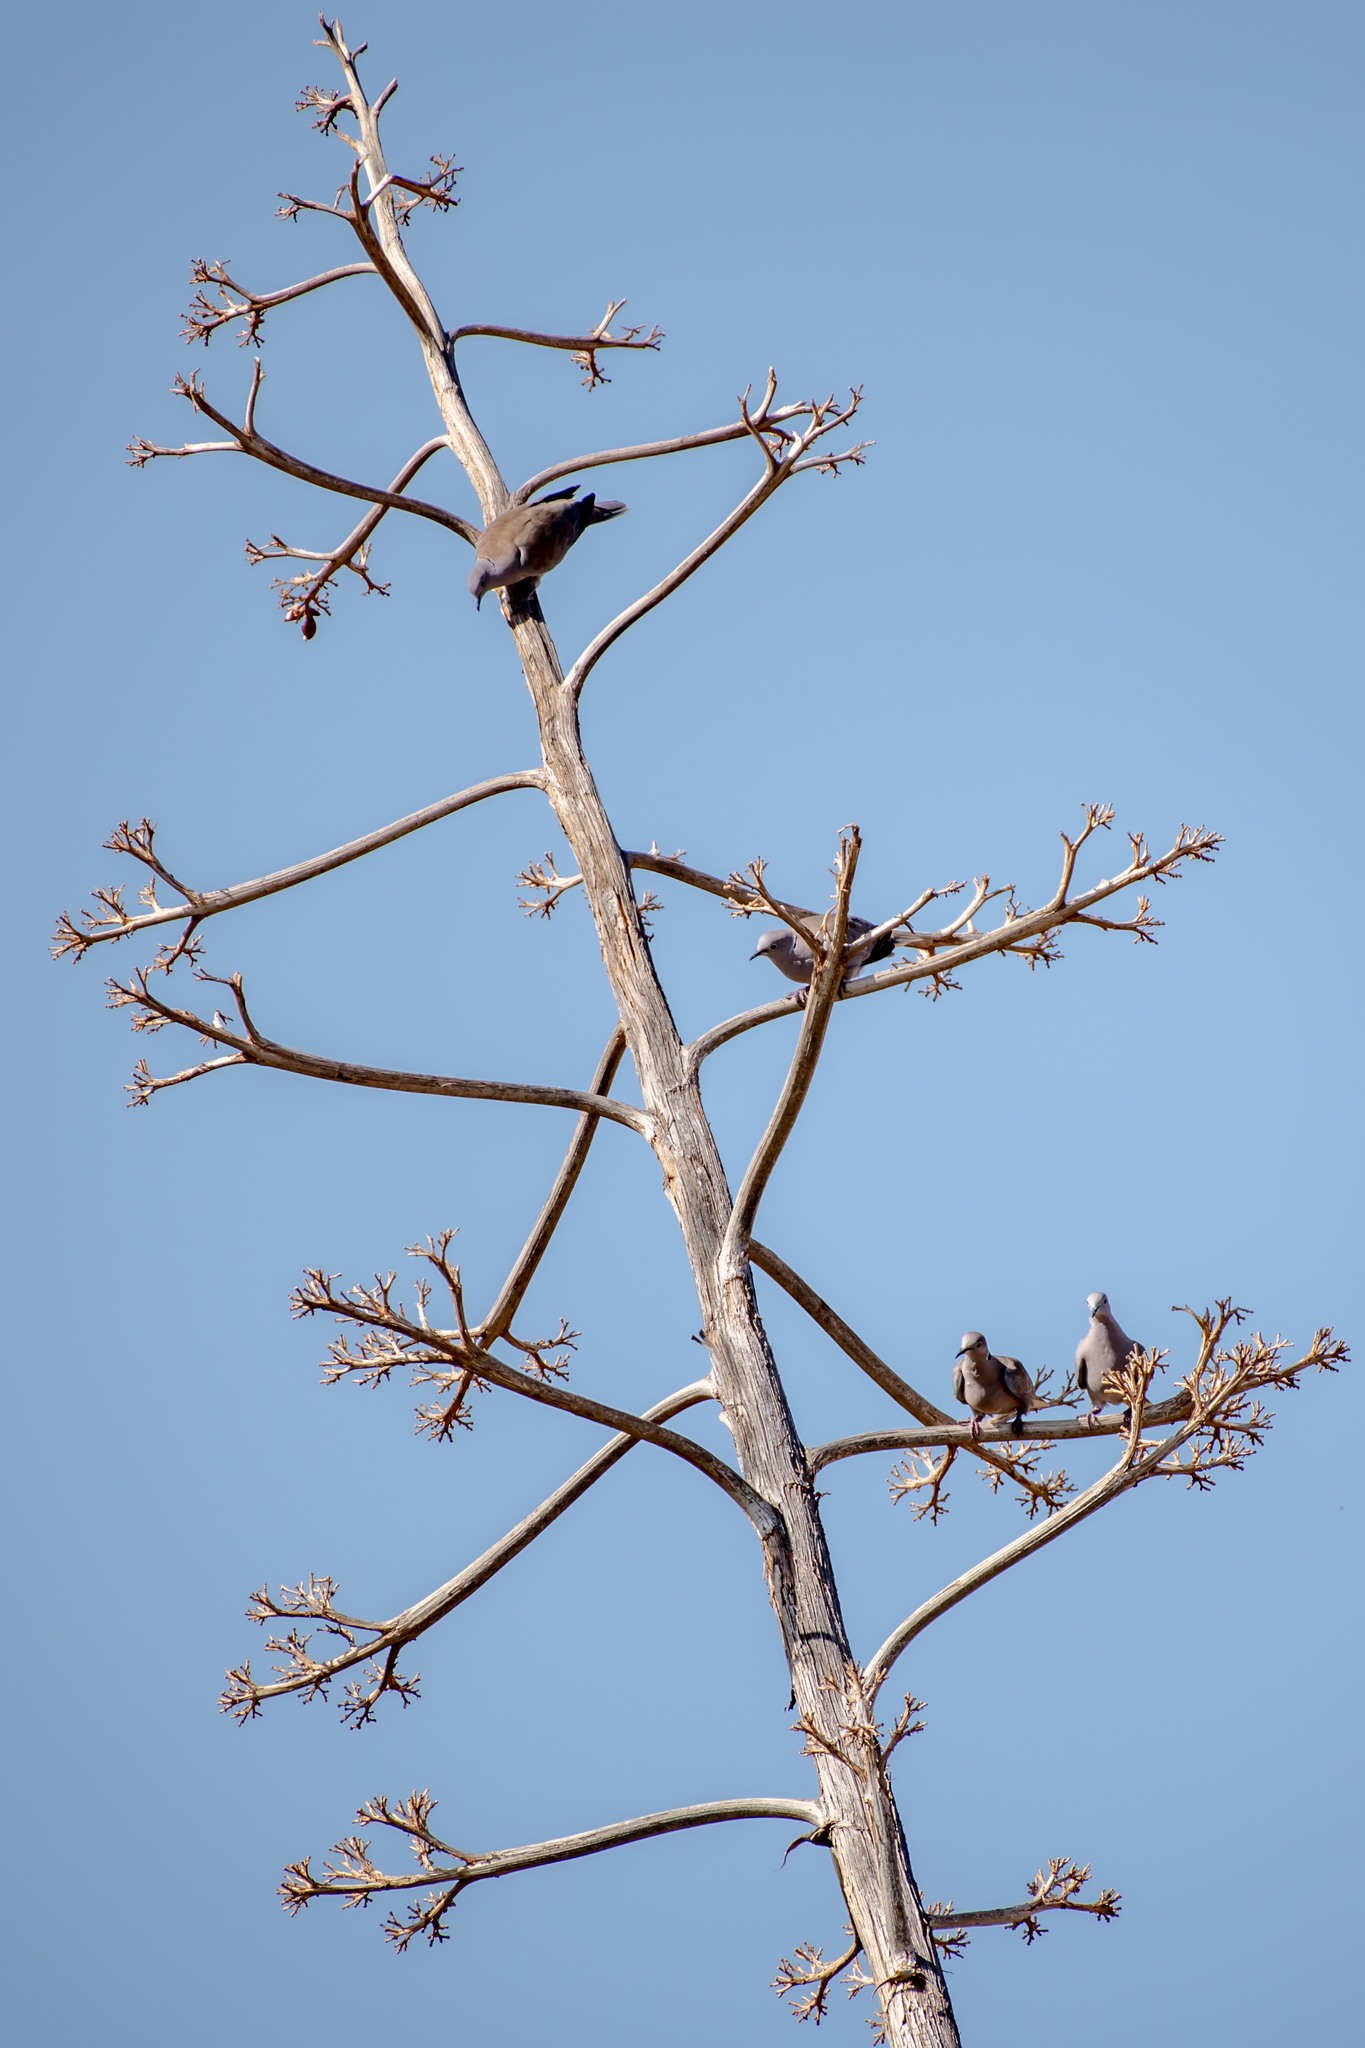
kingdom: Animalia
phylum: Chordata
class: Aves
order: Columbiformes
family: Columbidae
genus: Streptopelia
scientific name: Streptopelia decaocto
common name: Eurasian collared dove
